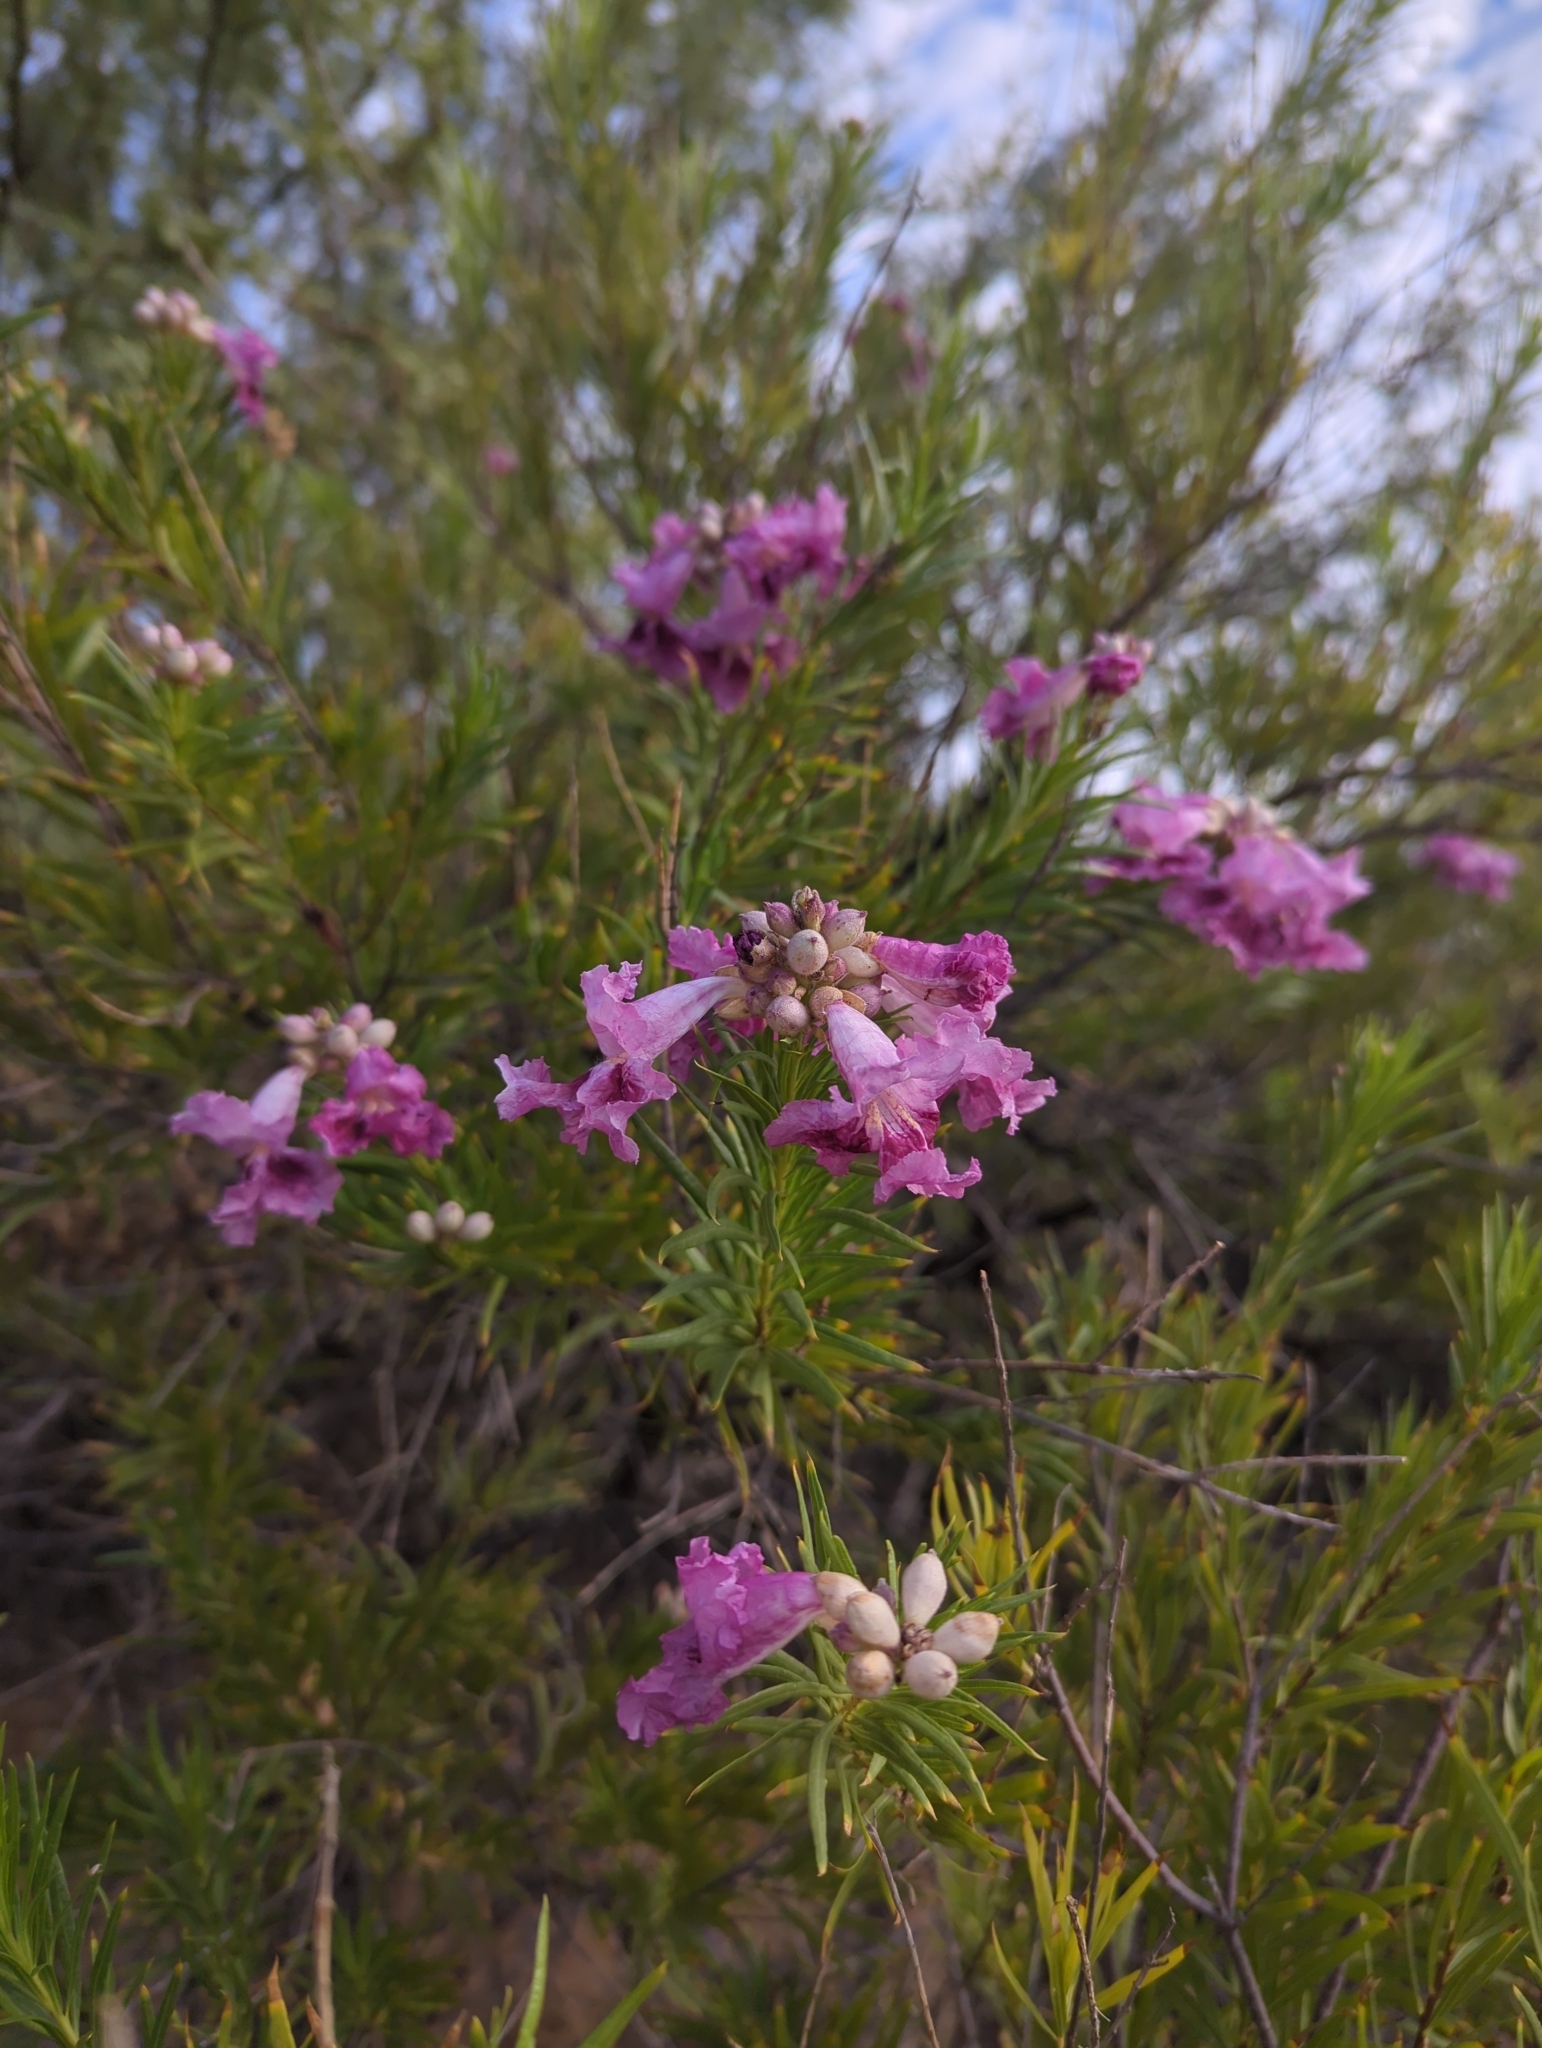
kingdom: Plantae
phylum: Tracheophyta
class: Magnoliopsida
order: Lamiales
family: Bignoniaceae
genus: Chilopsis
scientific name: Chilopsis linearis
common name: Desert-willow
